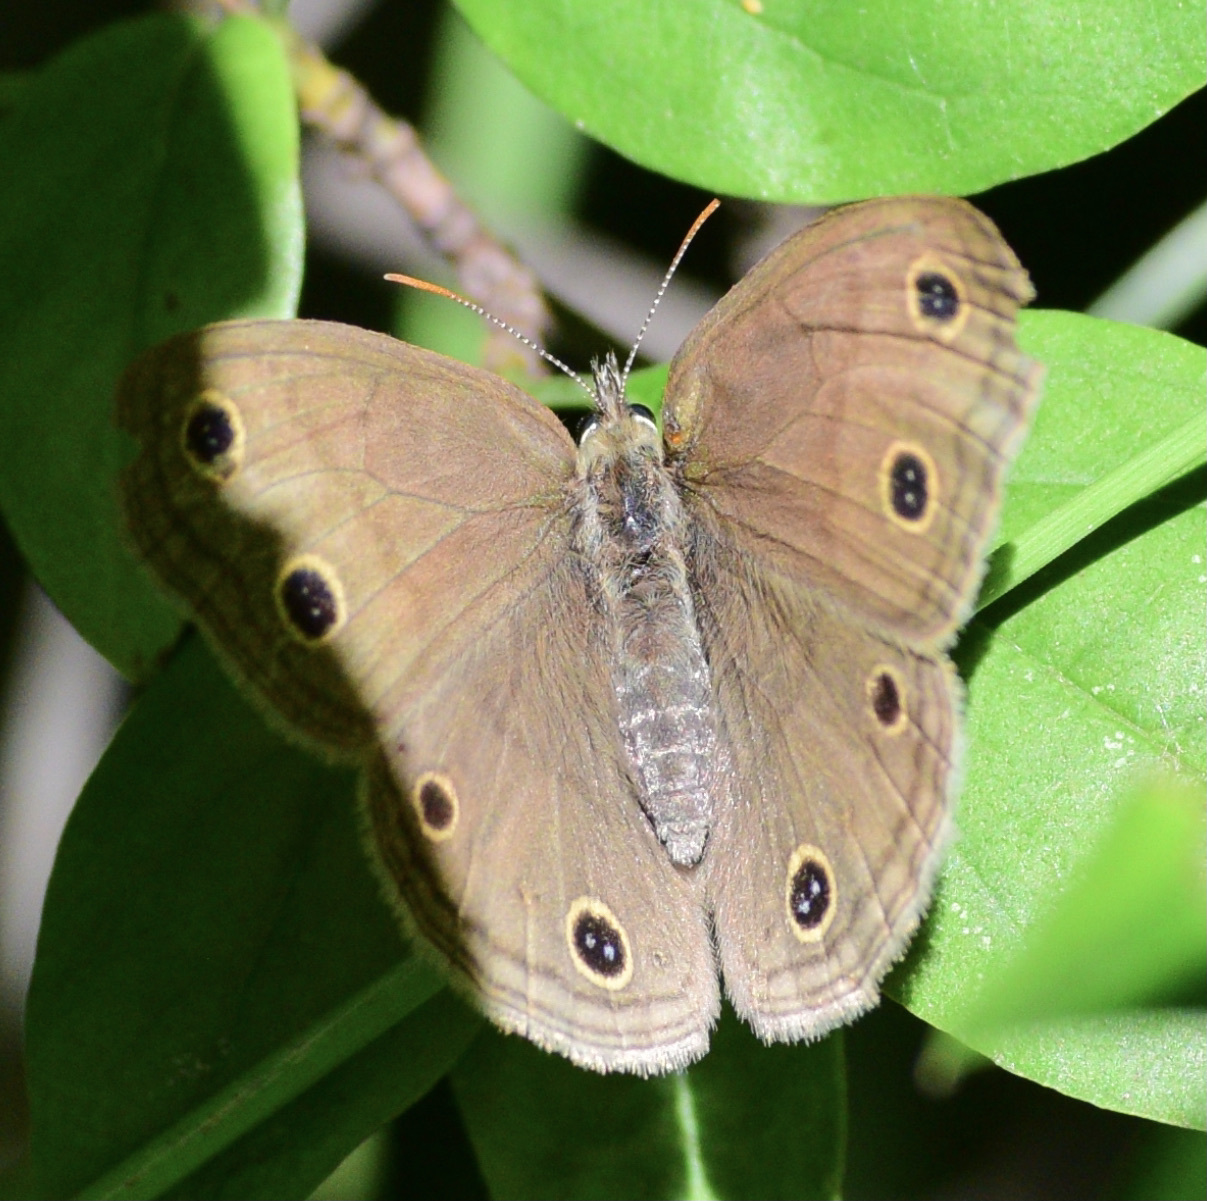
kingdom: Animalia
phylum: Arthropoda
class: Insecta
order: Lepidoptera
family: Nymphalidae
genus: Euptychia
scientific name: Euptychia cymela
